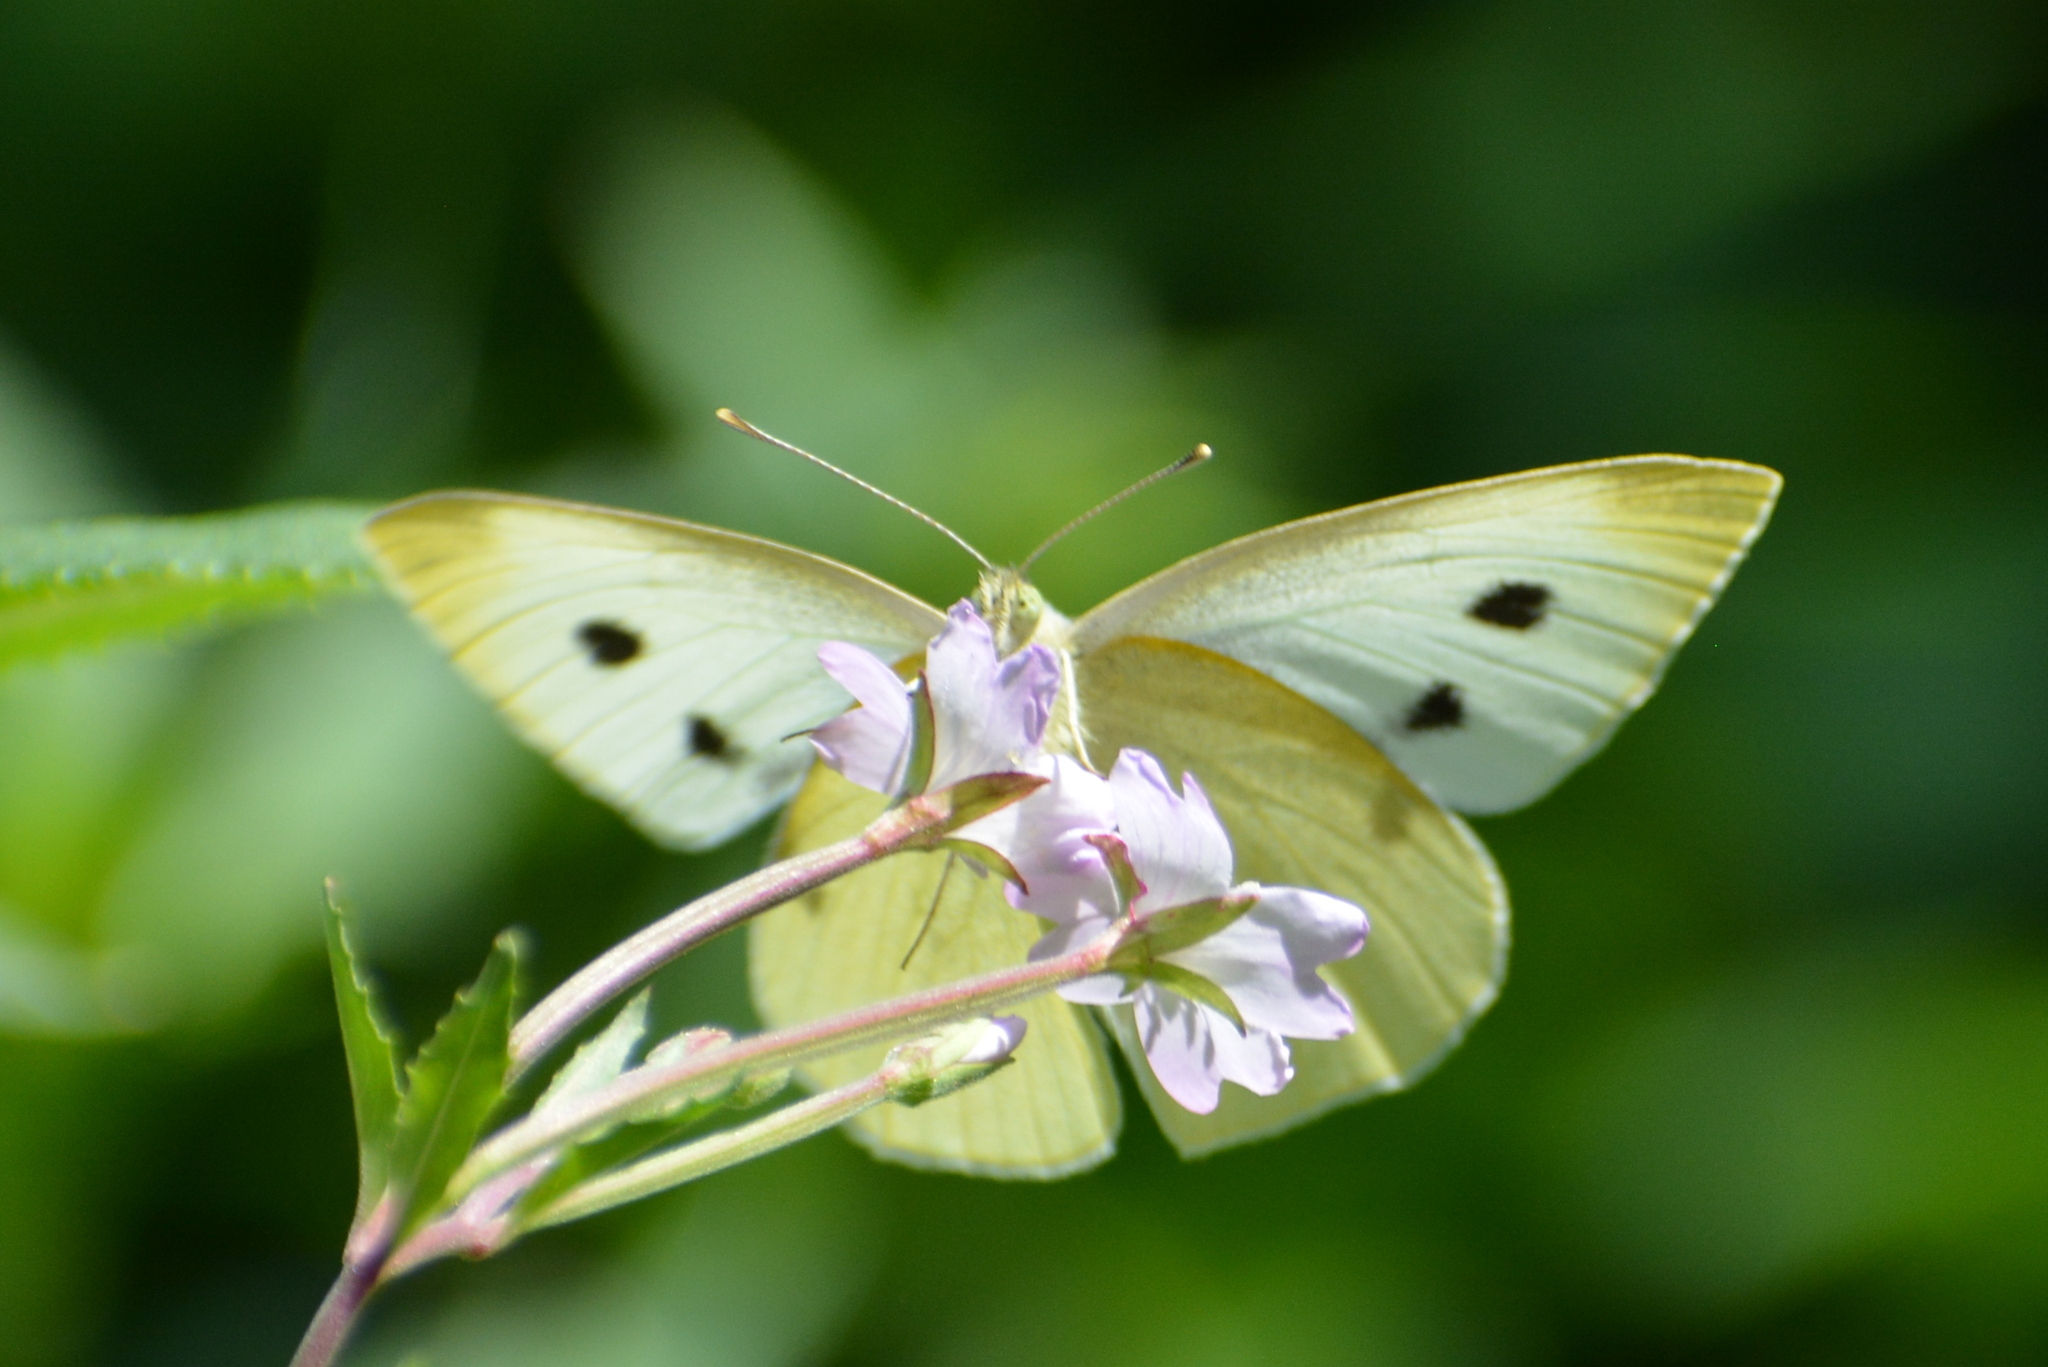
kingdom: Animalia
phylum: Arthropoda
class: Insecta
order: Lepidoptera
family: Pieridae
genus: Pieris
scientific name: Pieris rapae
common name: Small white
